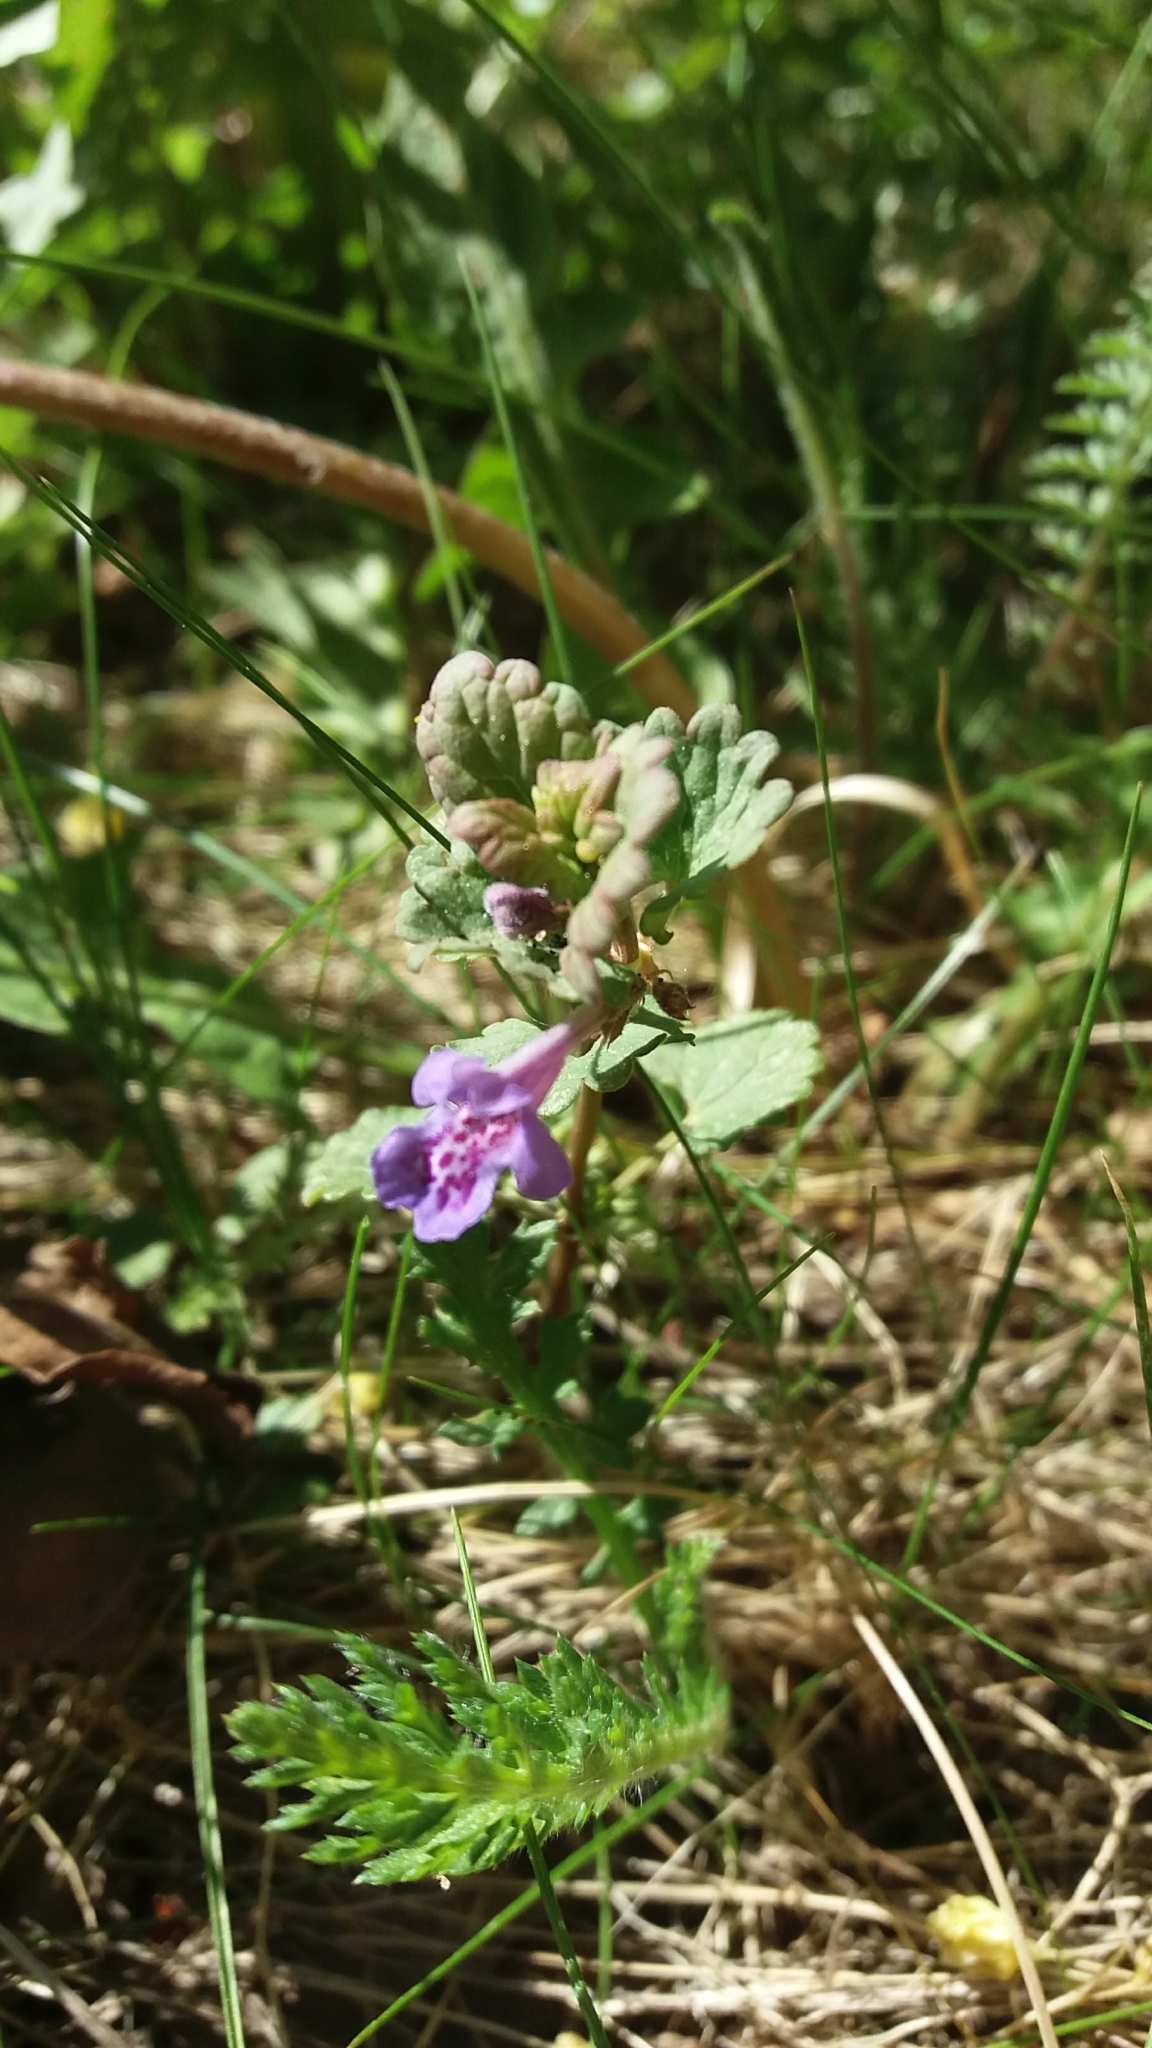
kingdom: Plantae
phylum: Tracheophyta
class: Magnoliopsida
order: Lamiales
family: Lamiaceae
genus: Glechoma
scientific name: Glechoma hederacea
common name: Ground ivy
